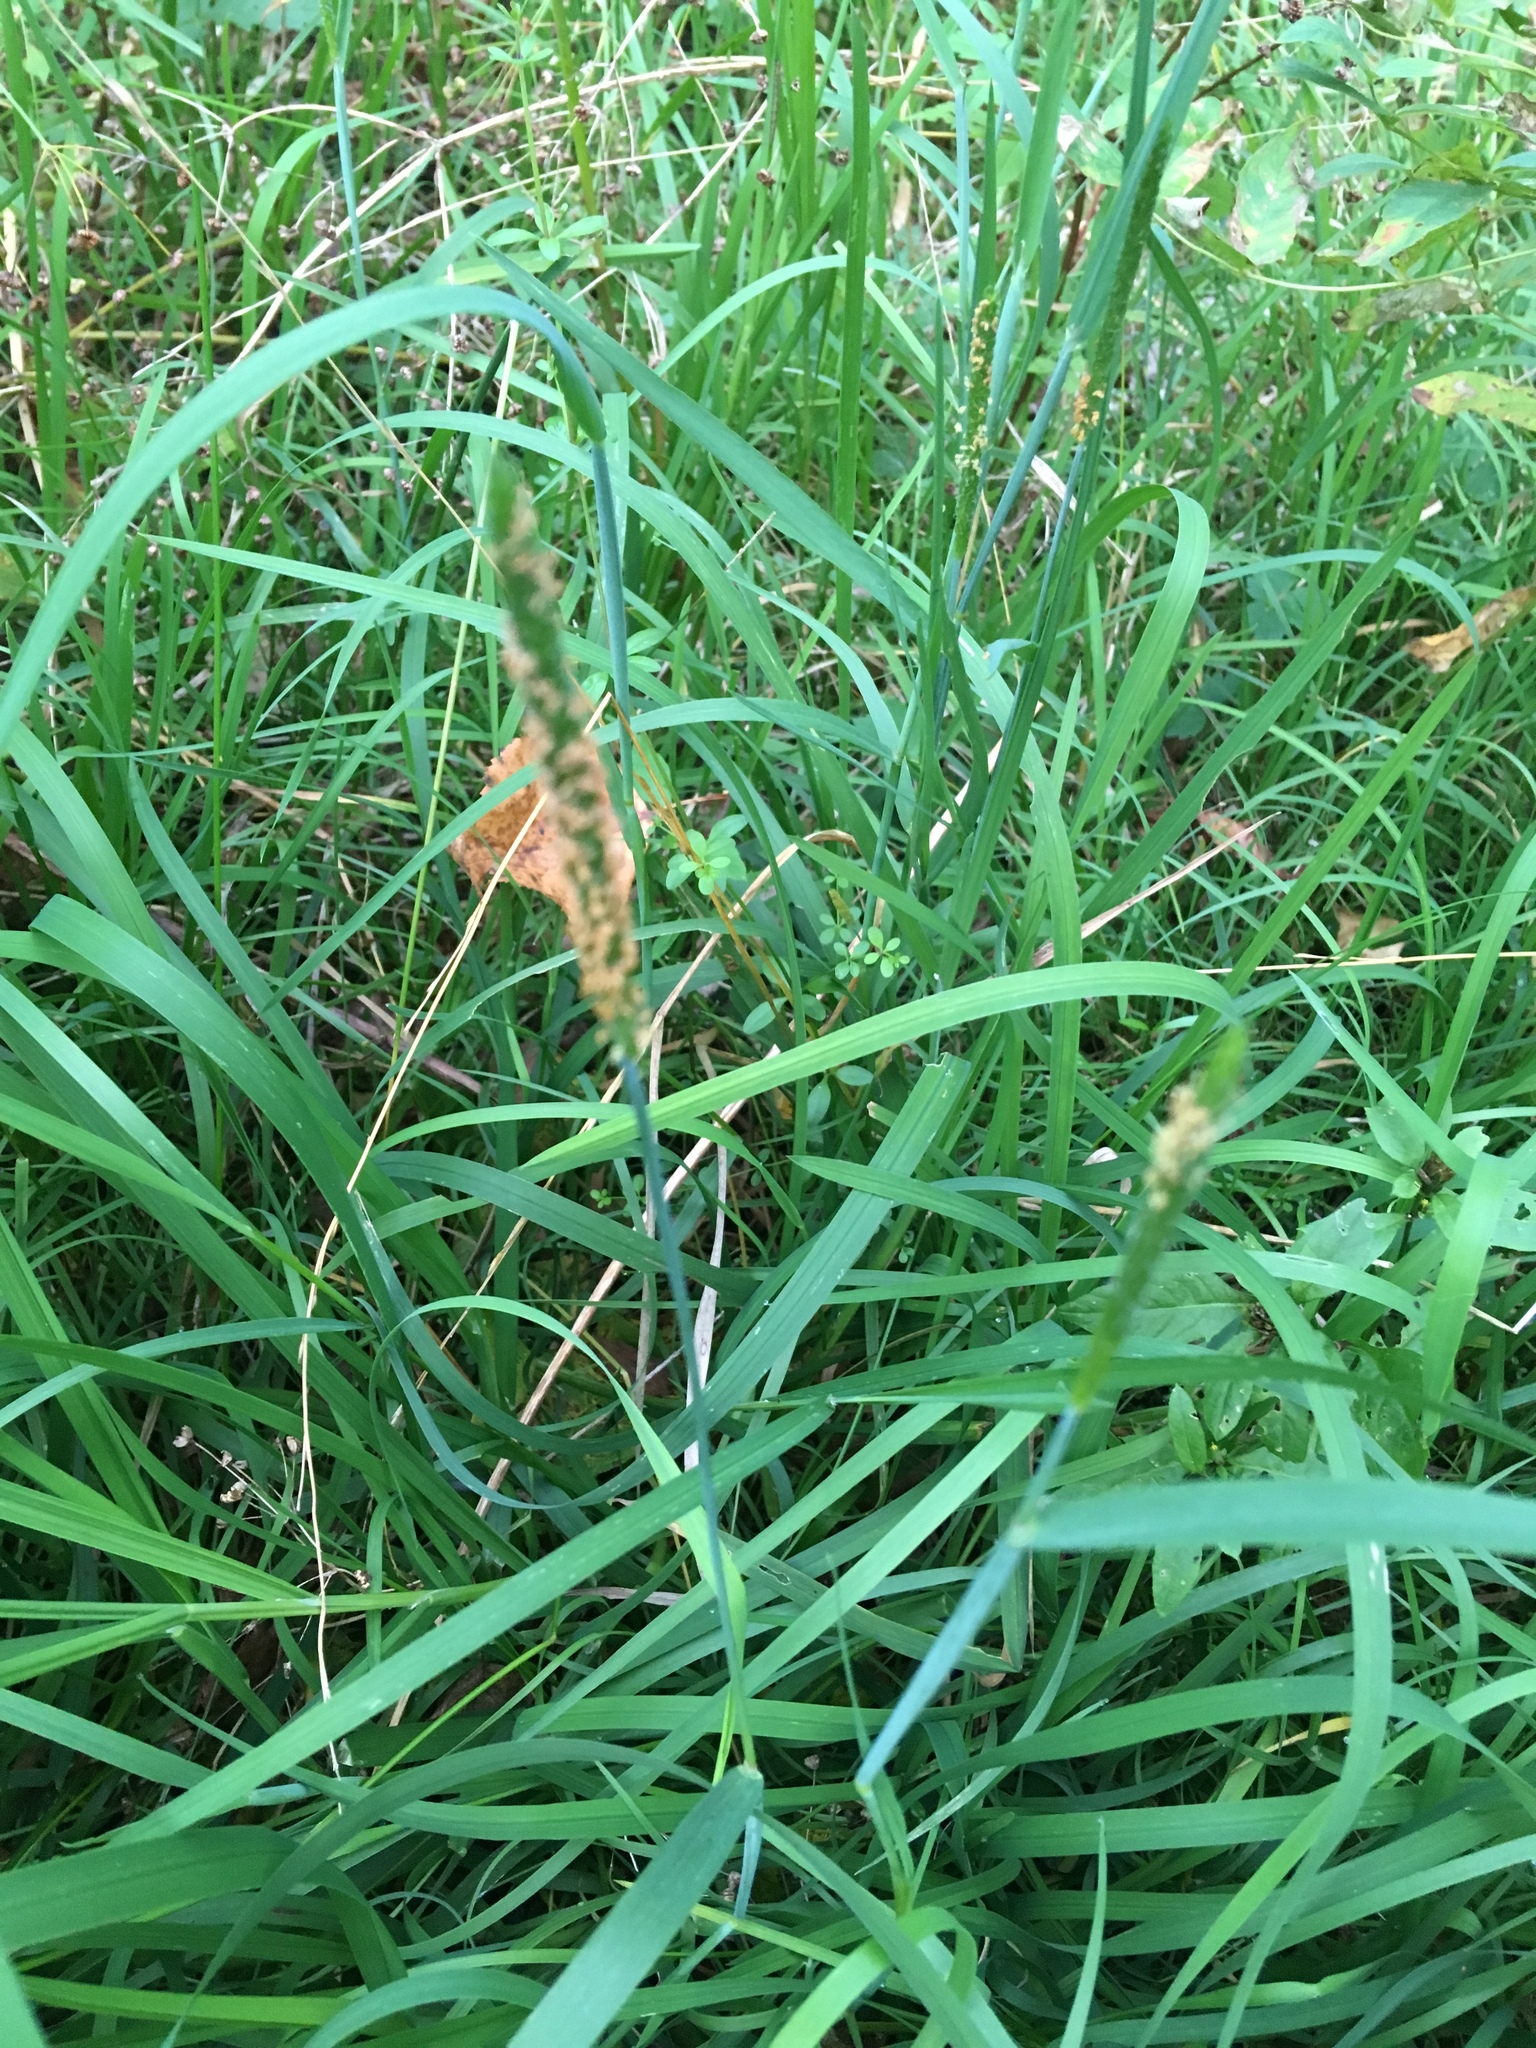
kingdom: Plantae
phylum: Tracheophyta
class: Liliopsida
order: Poales
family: Poaceae
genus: Alopecurus
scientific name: Alopecurus aequalis
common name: Orange foxtail
